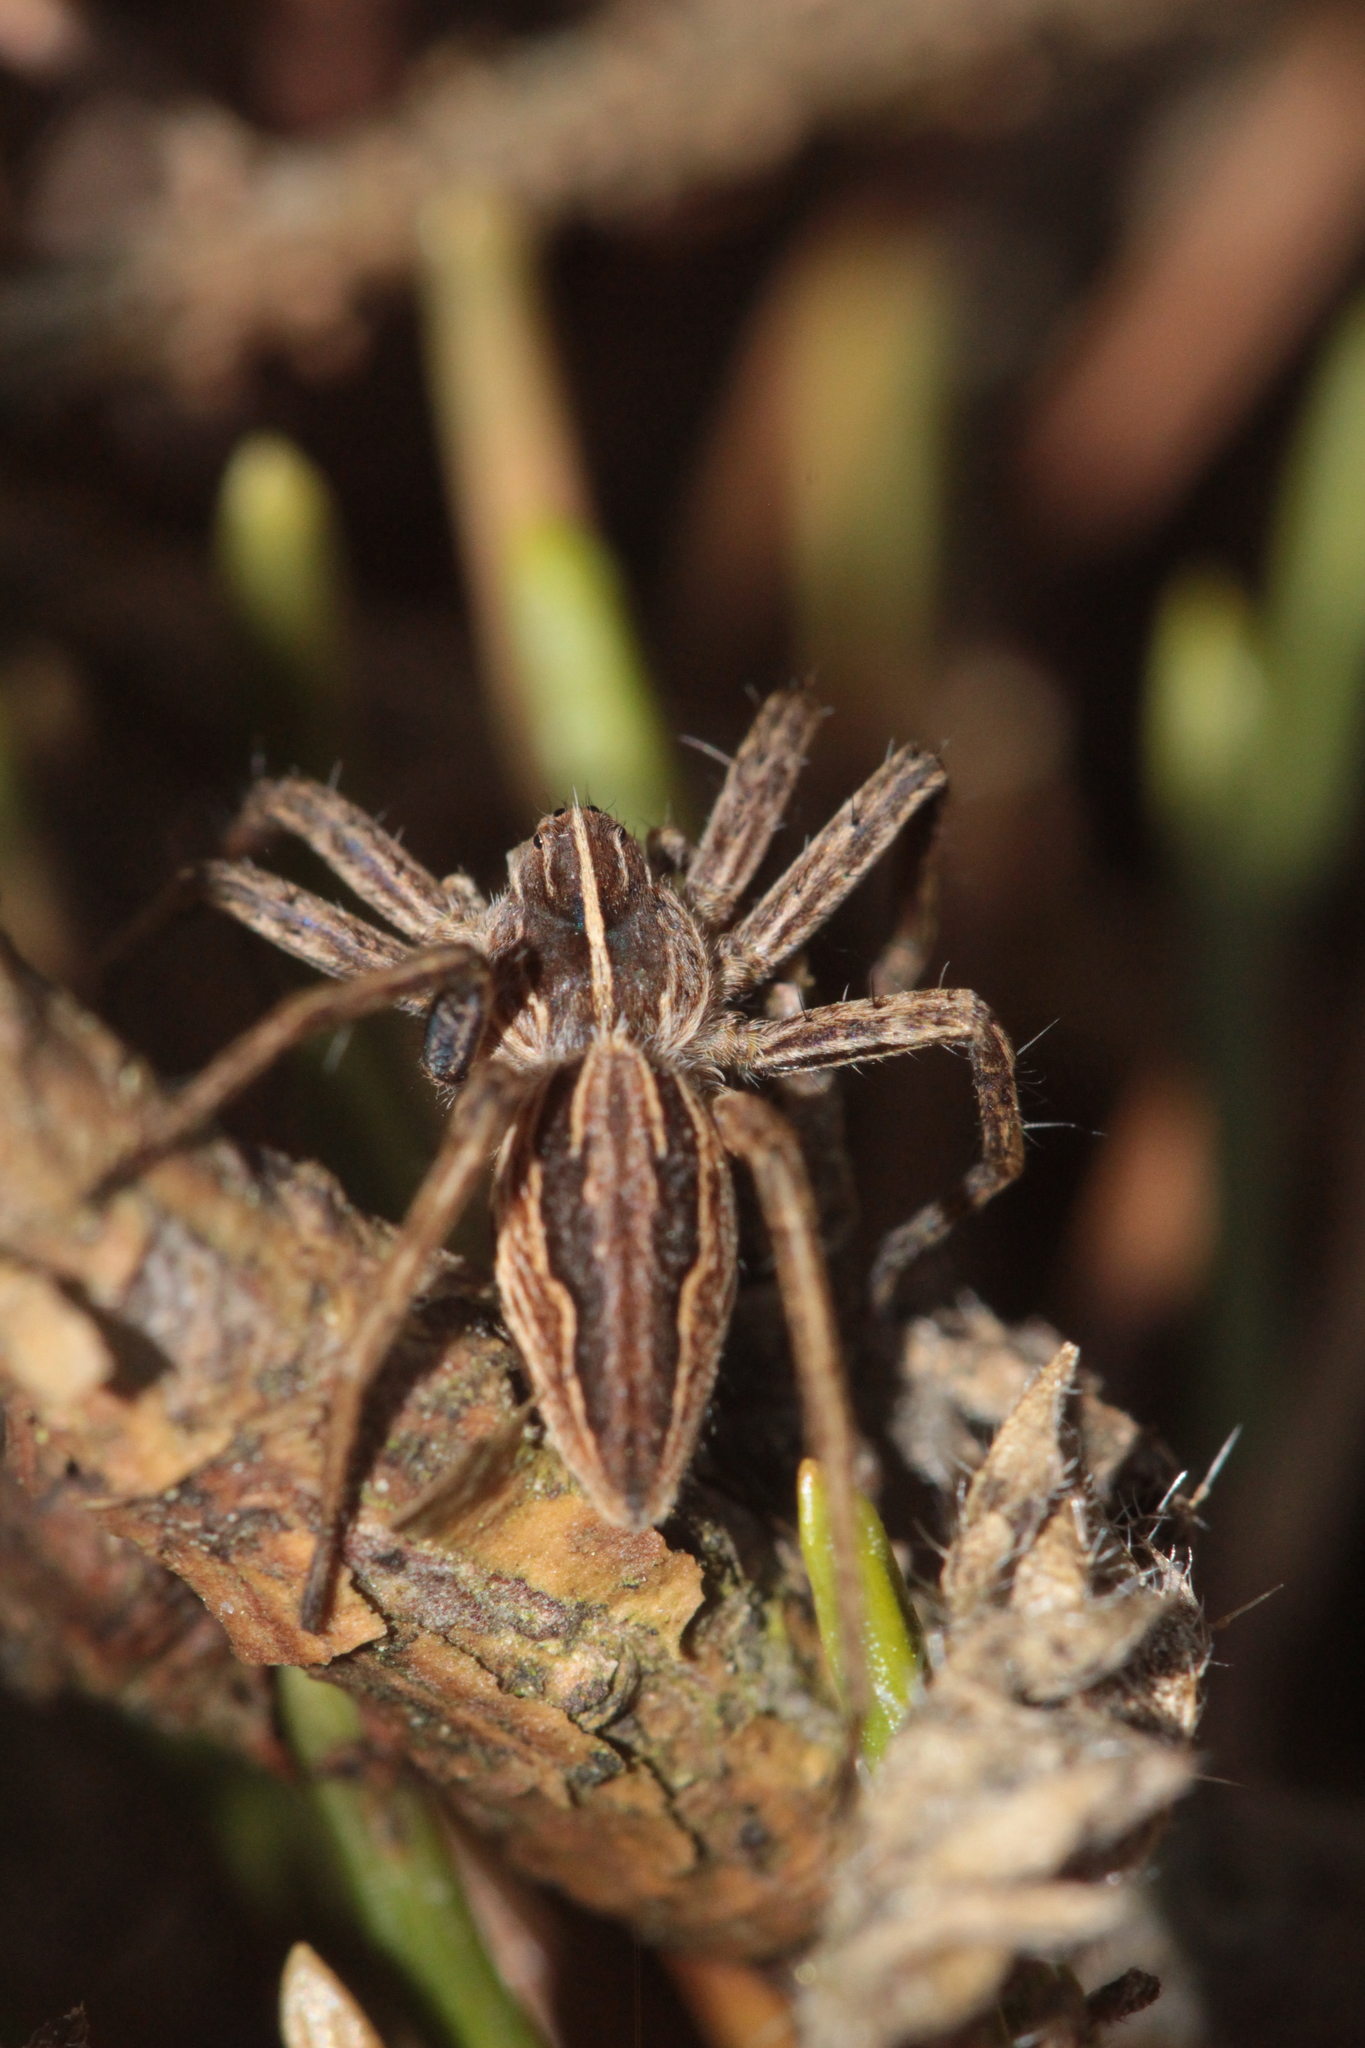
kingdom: Animalia
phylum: Arthropoda
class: Arachnida
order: Araneae
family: Pisauridae
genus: Pisaura
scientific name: Pisaura mirabilis
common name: Tent spider
